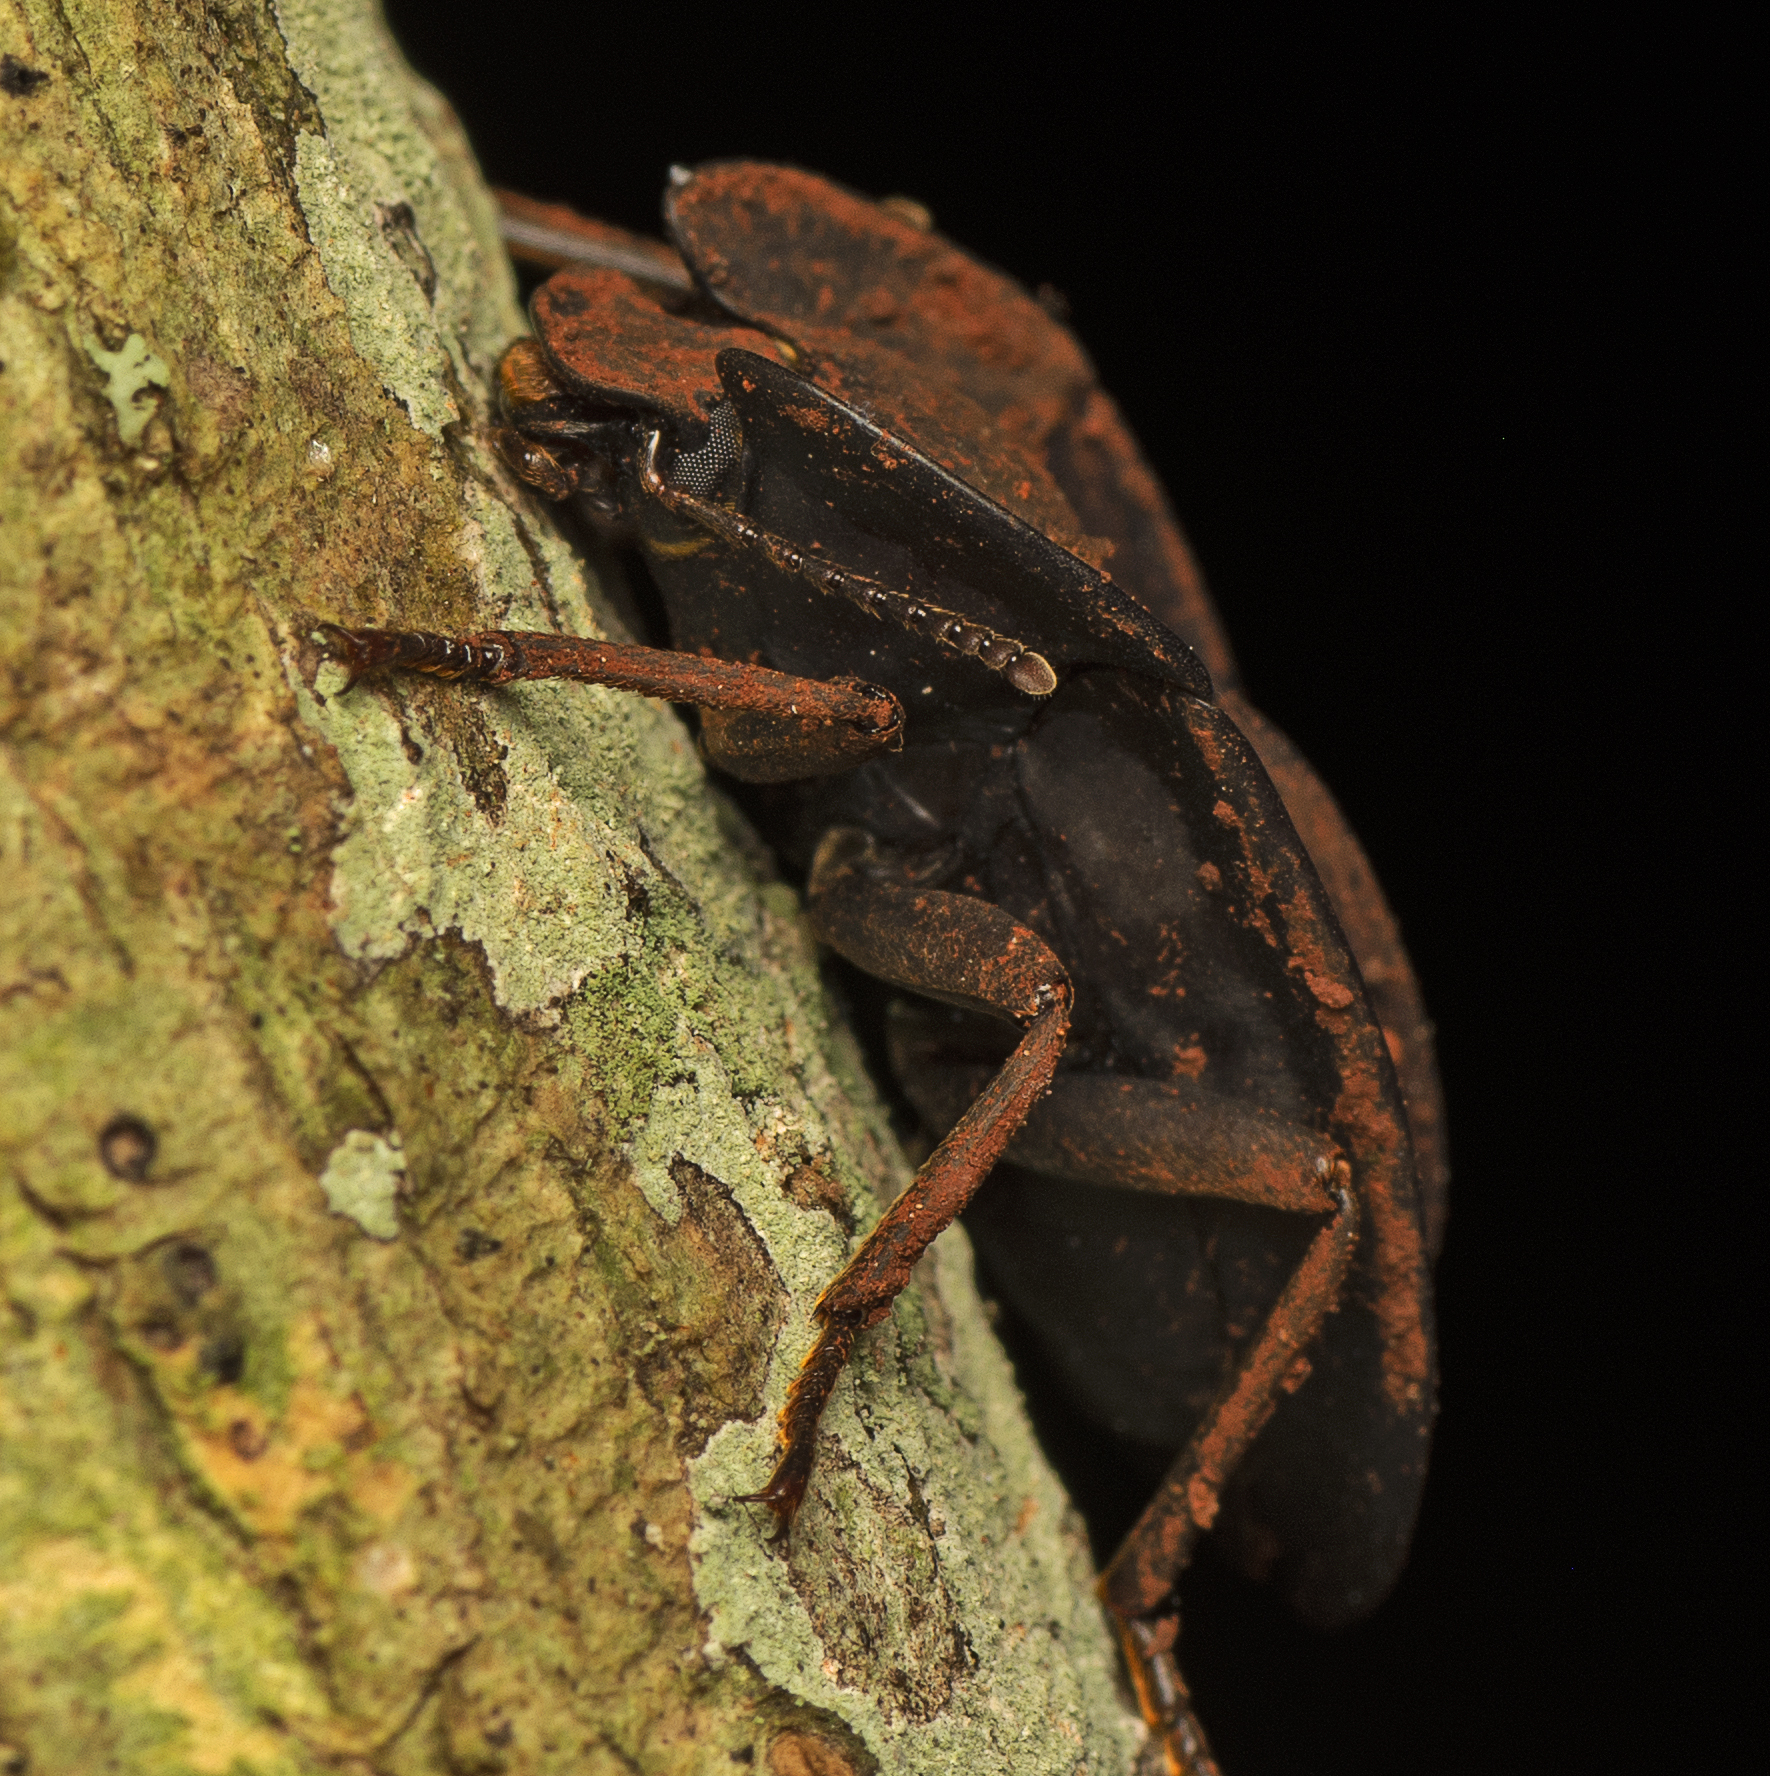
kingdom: Animalia
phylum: Arthropoda
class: Insecta
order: Coleoptera
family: Tenebrionidae
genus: Cillibus
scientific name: Cillibus
